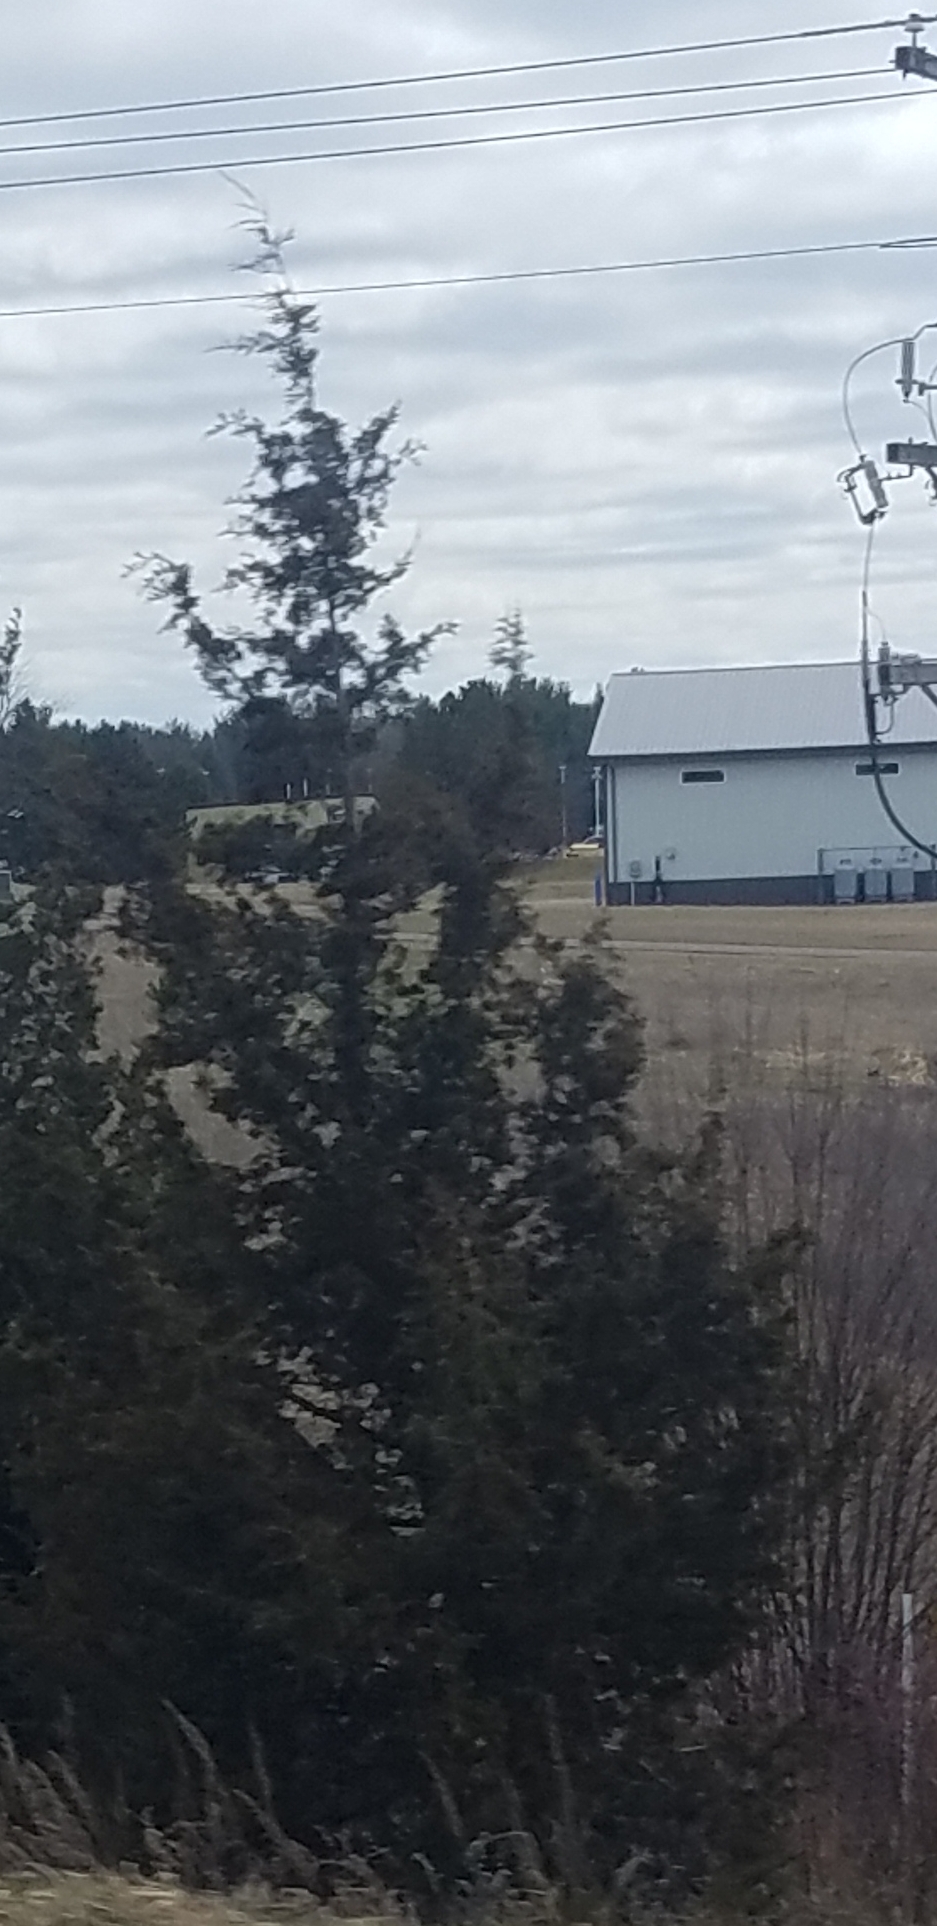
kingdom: Plantae
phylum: Tracheophyta
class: Pinopsida
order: Pinales
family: Cupressaceae
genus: Juniperus
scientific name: Juniperus virginiana
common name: Red juniper
